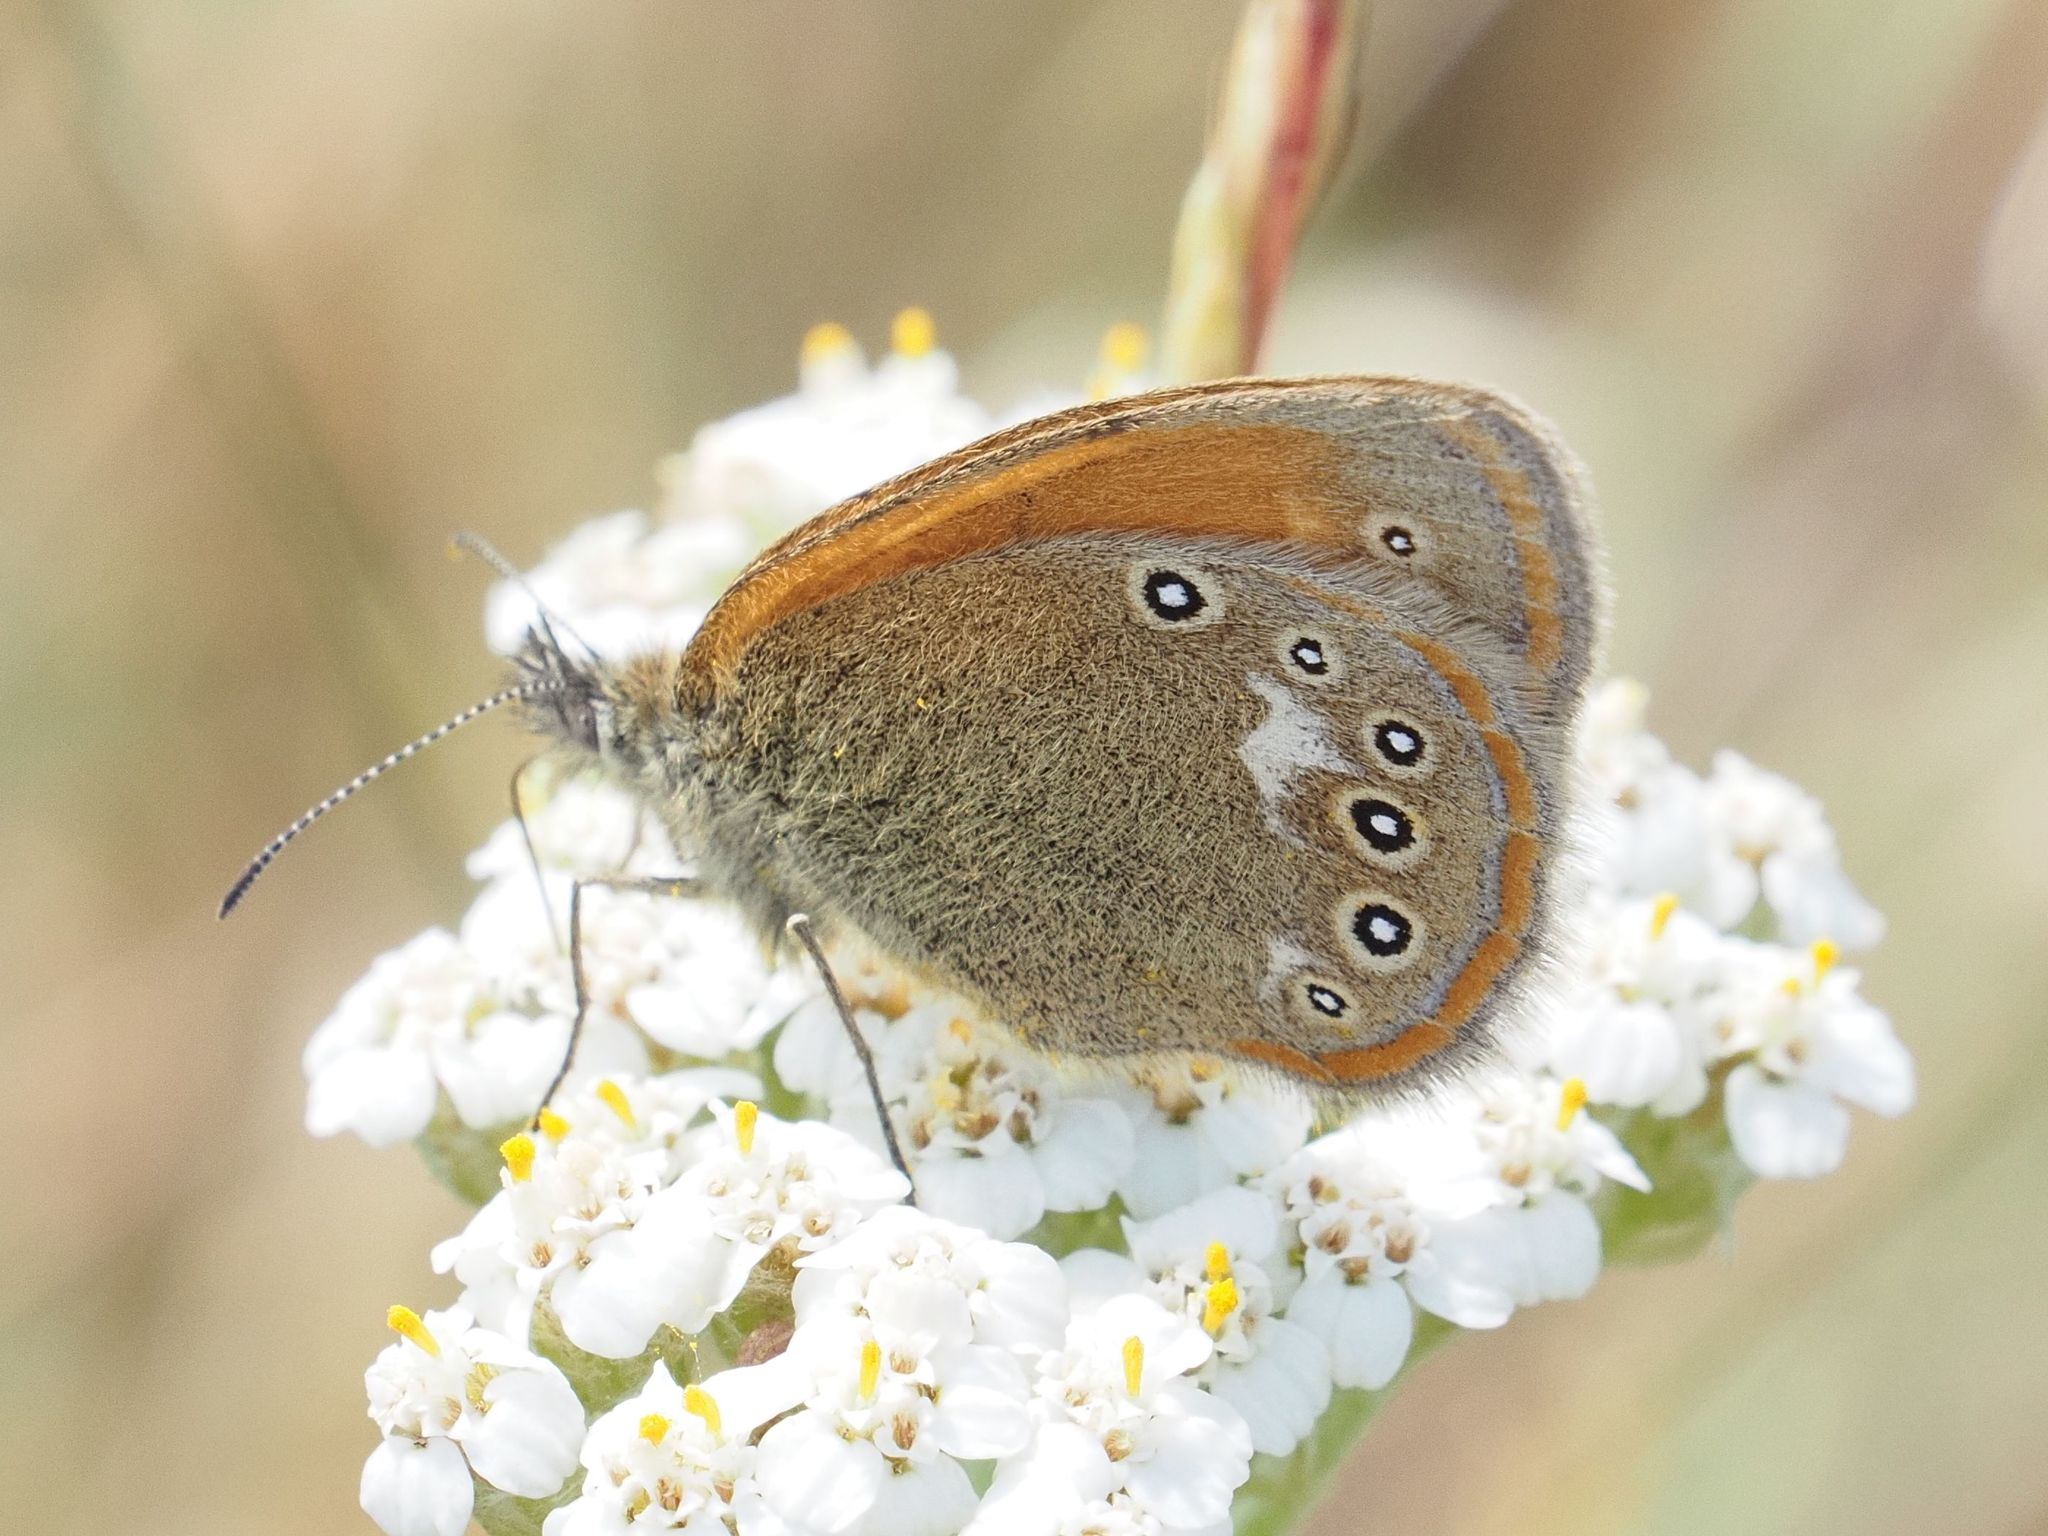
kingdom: Animalia
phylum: Arthropoda
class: Insecta
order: Lepidoptera
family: Nymphalidae
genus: Coenonympha
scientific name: Coenonympha iphis
